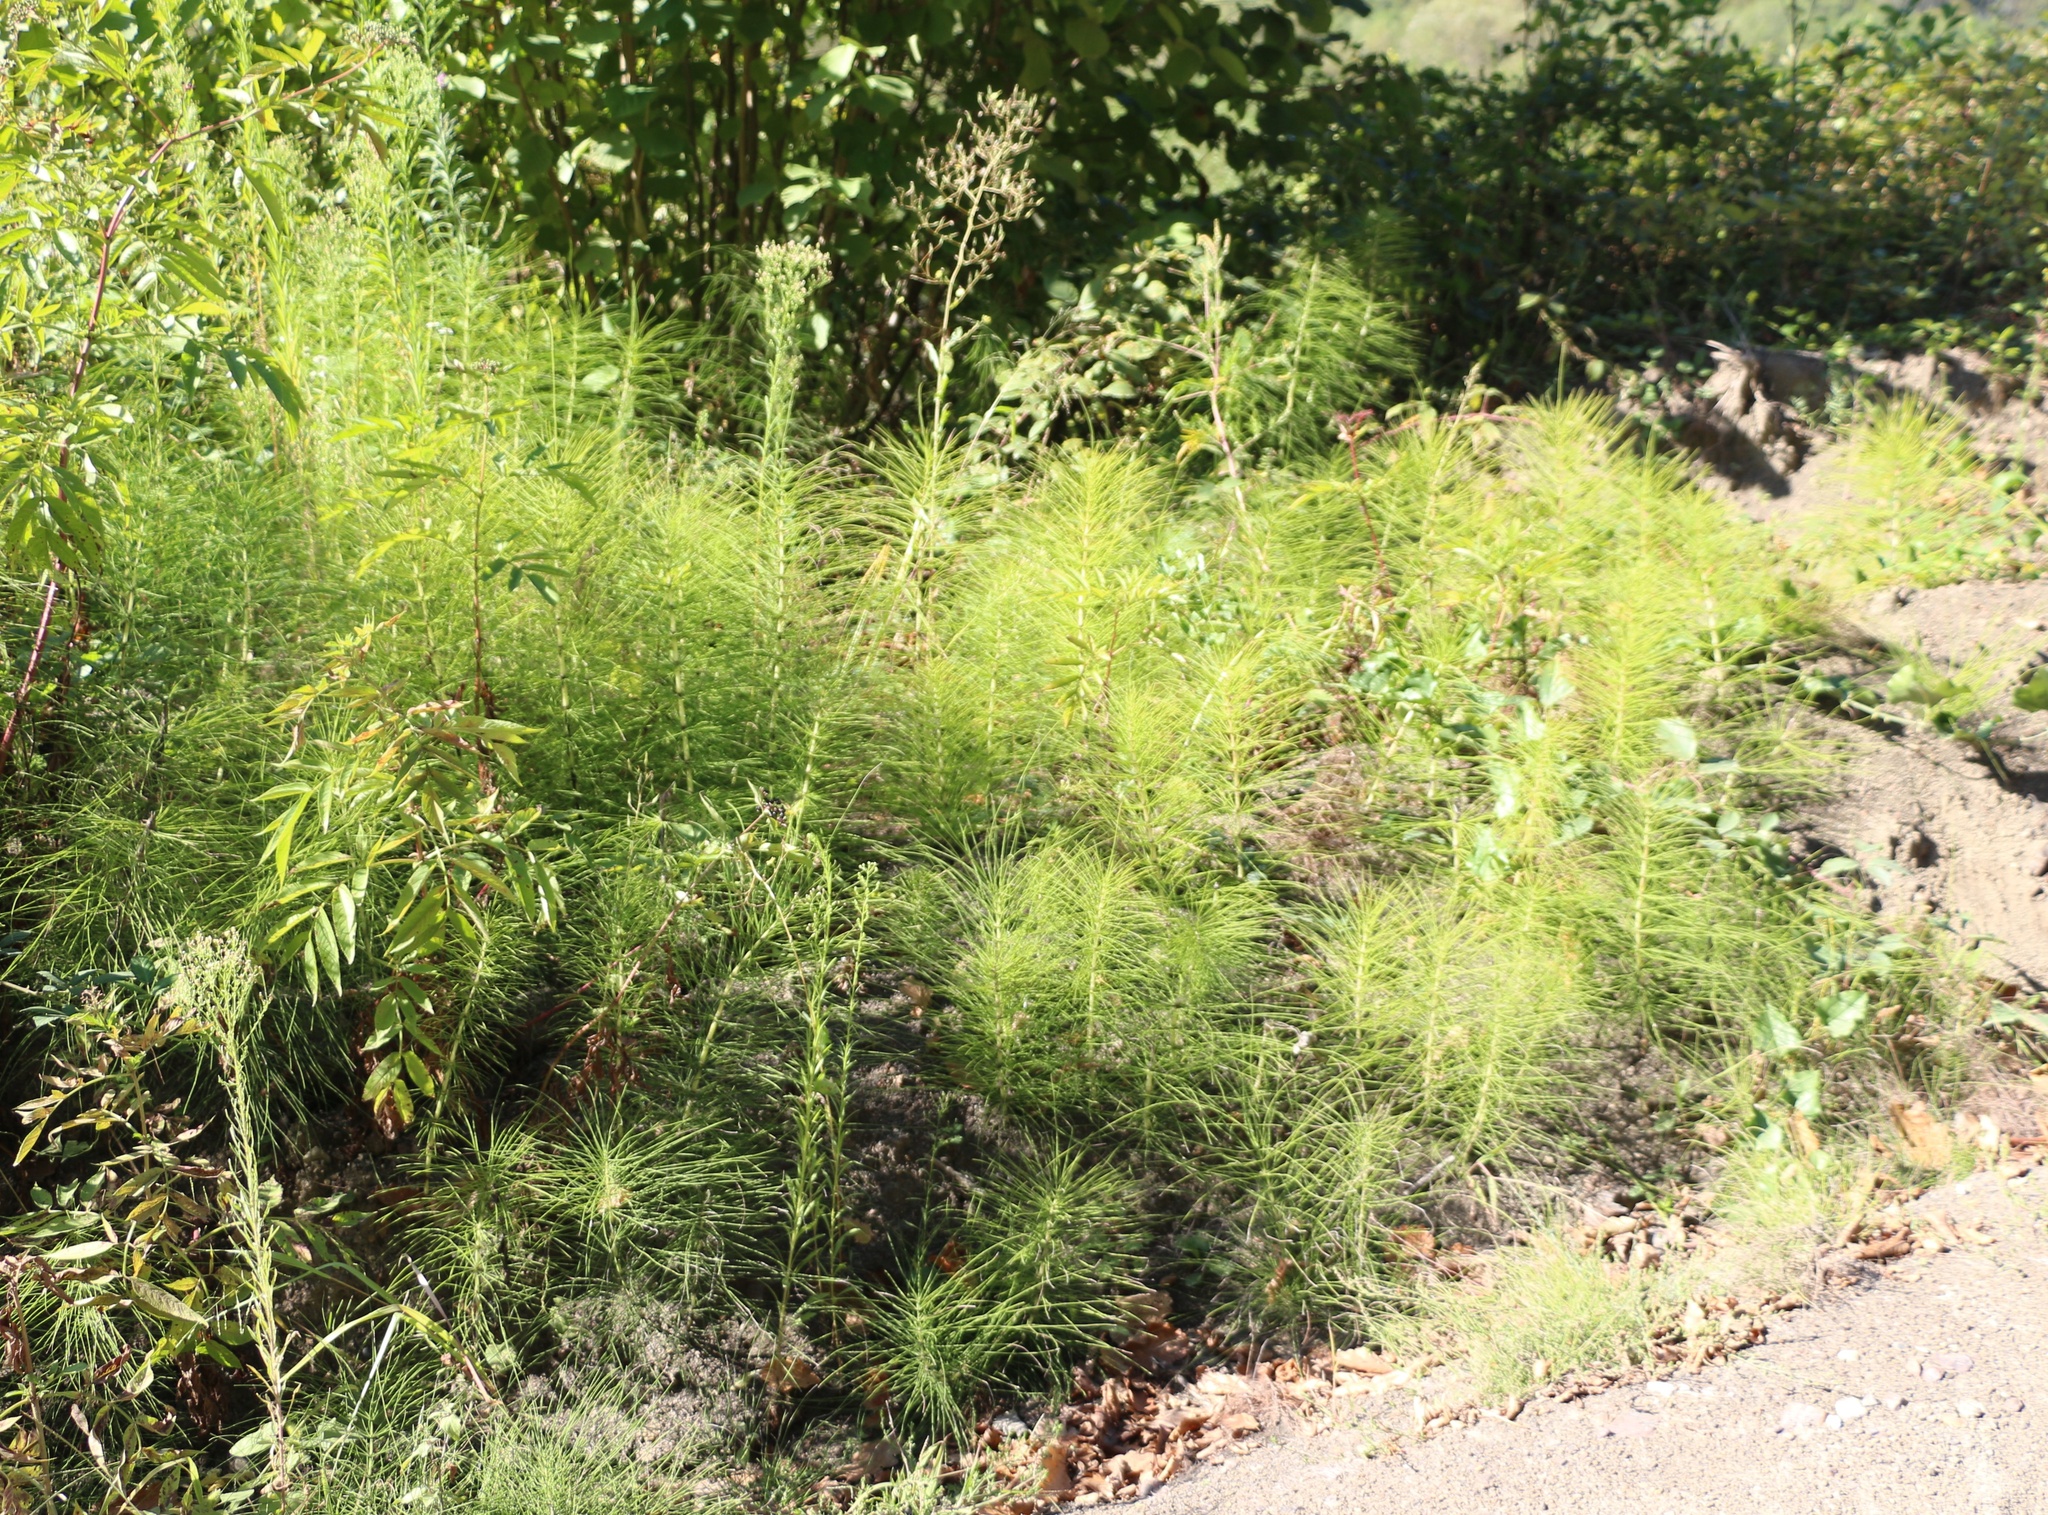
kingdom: Plantae
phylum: Tracheophyta
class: Polypodiopsida
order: Equisetales
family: Equisetaceae
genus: Equisetum
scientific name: Equisetum telmateia
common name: Great horsetail
